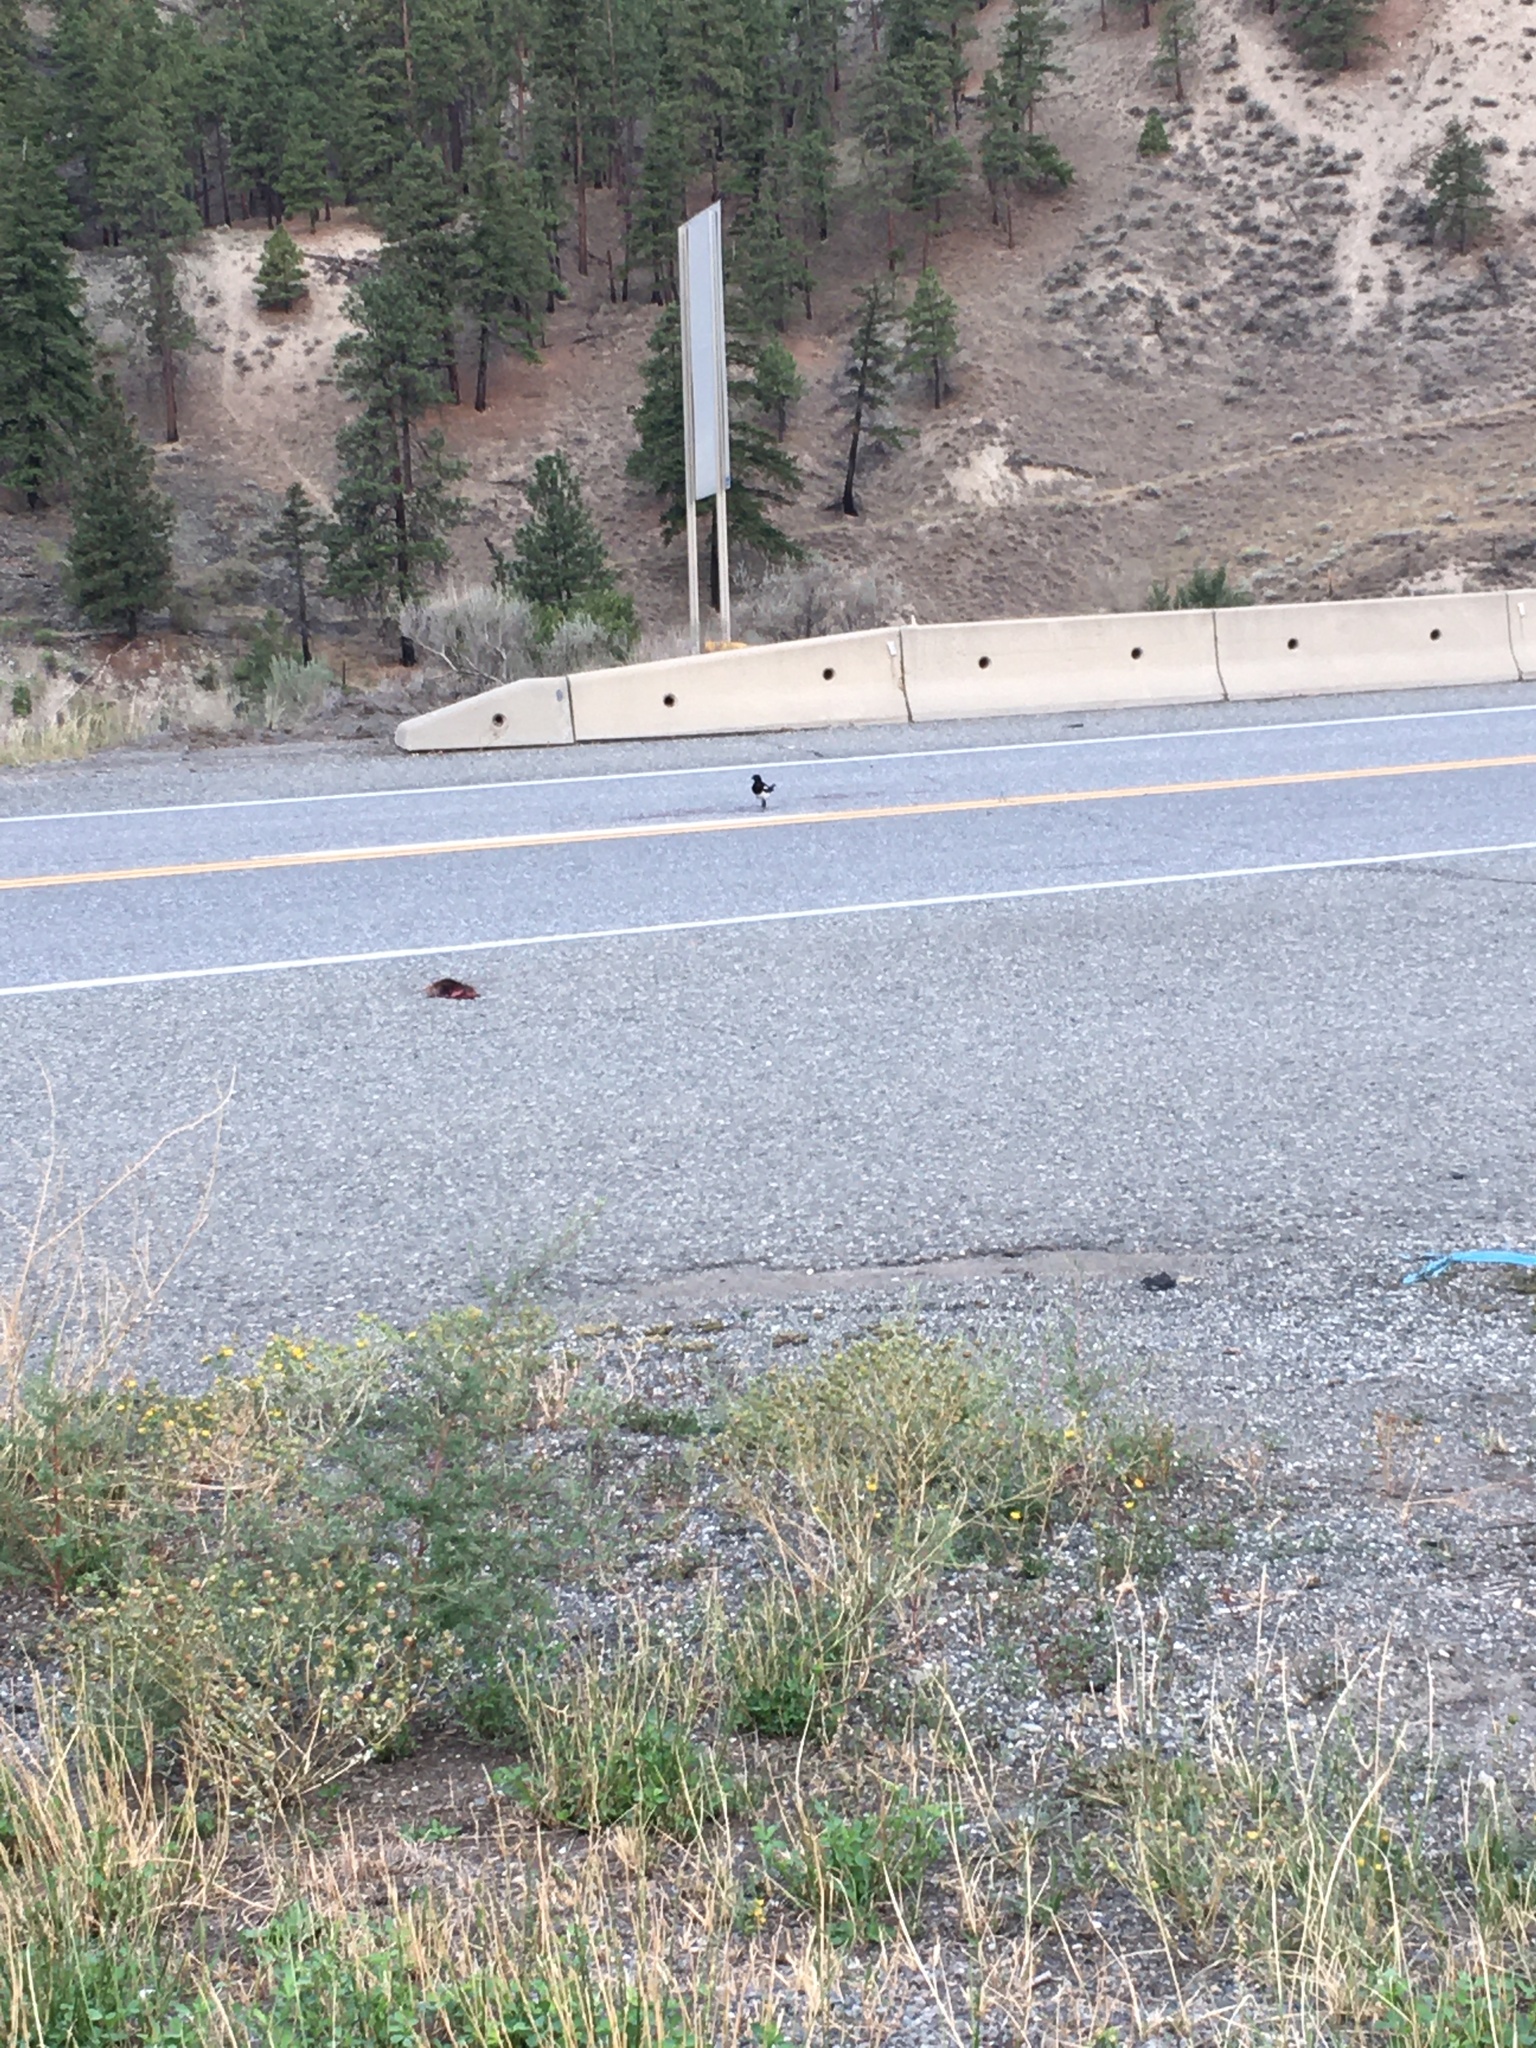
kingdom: Animalia
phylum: Chordata
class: Aves
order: Passeriformes
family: Corvidae
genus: Pica
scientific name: Pica hudsonia
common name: Black-billed magpie
